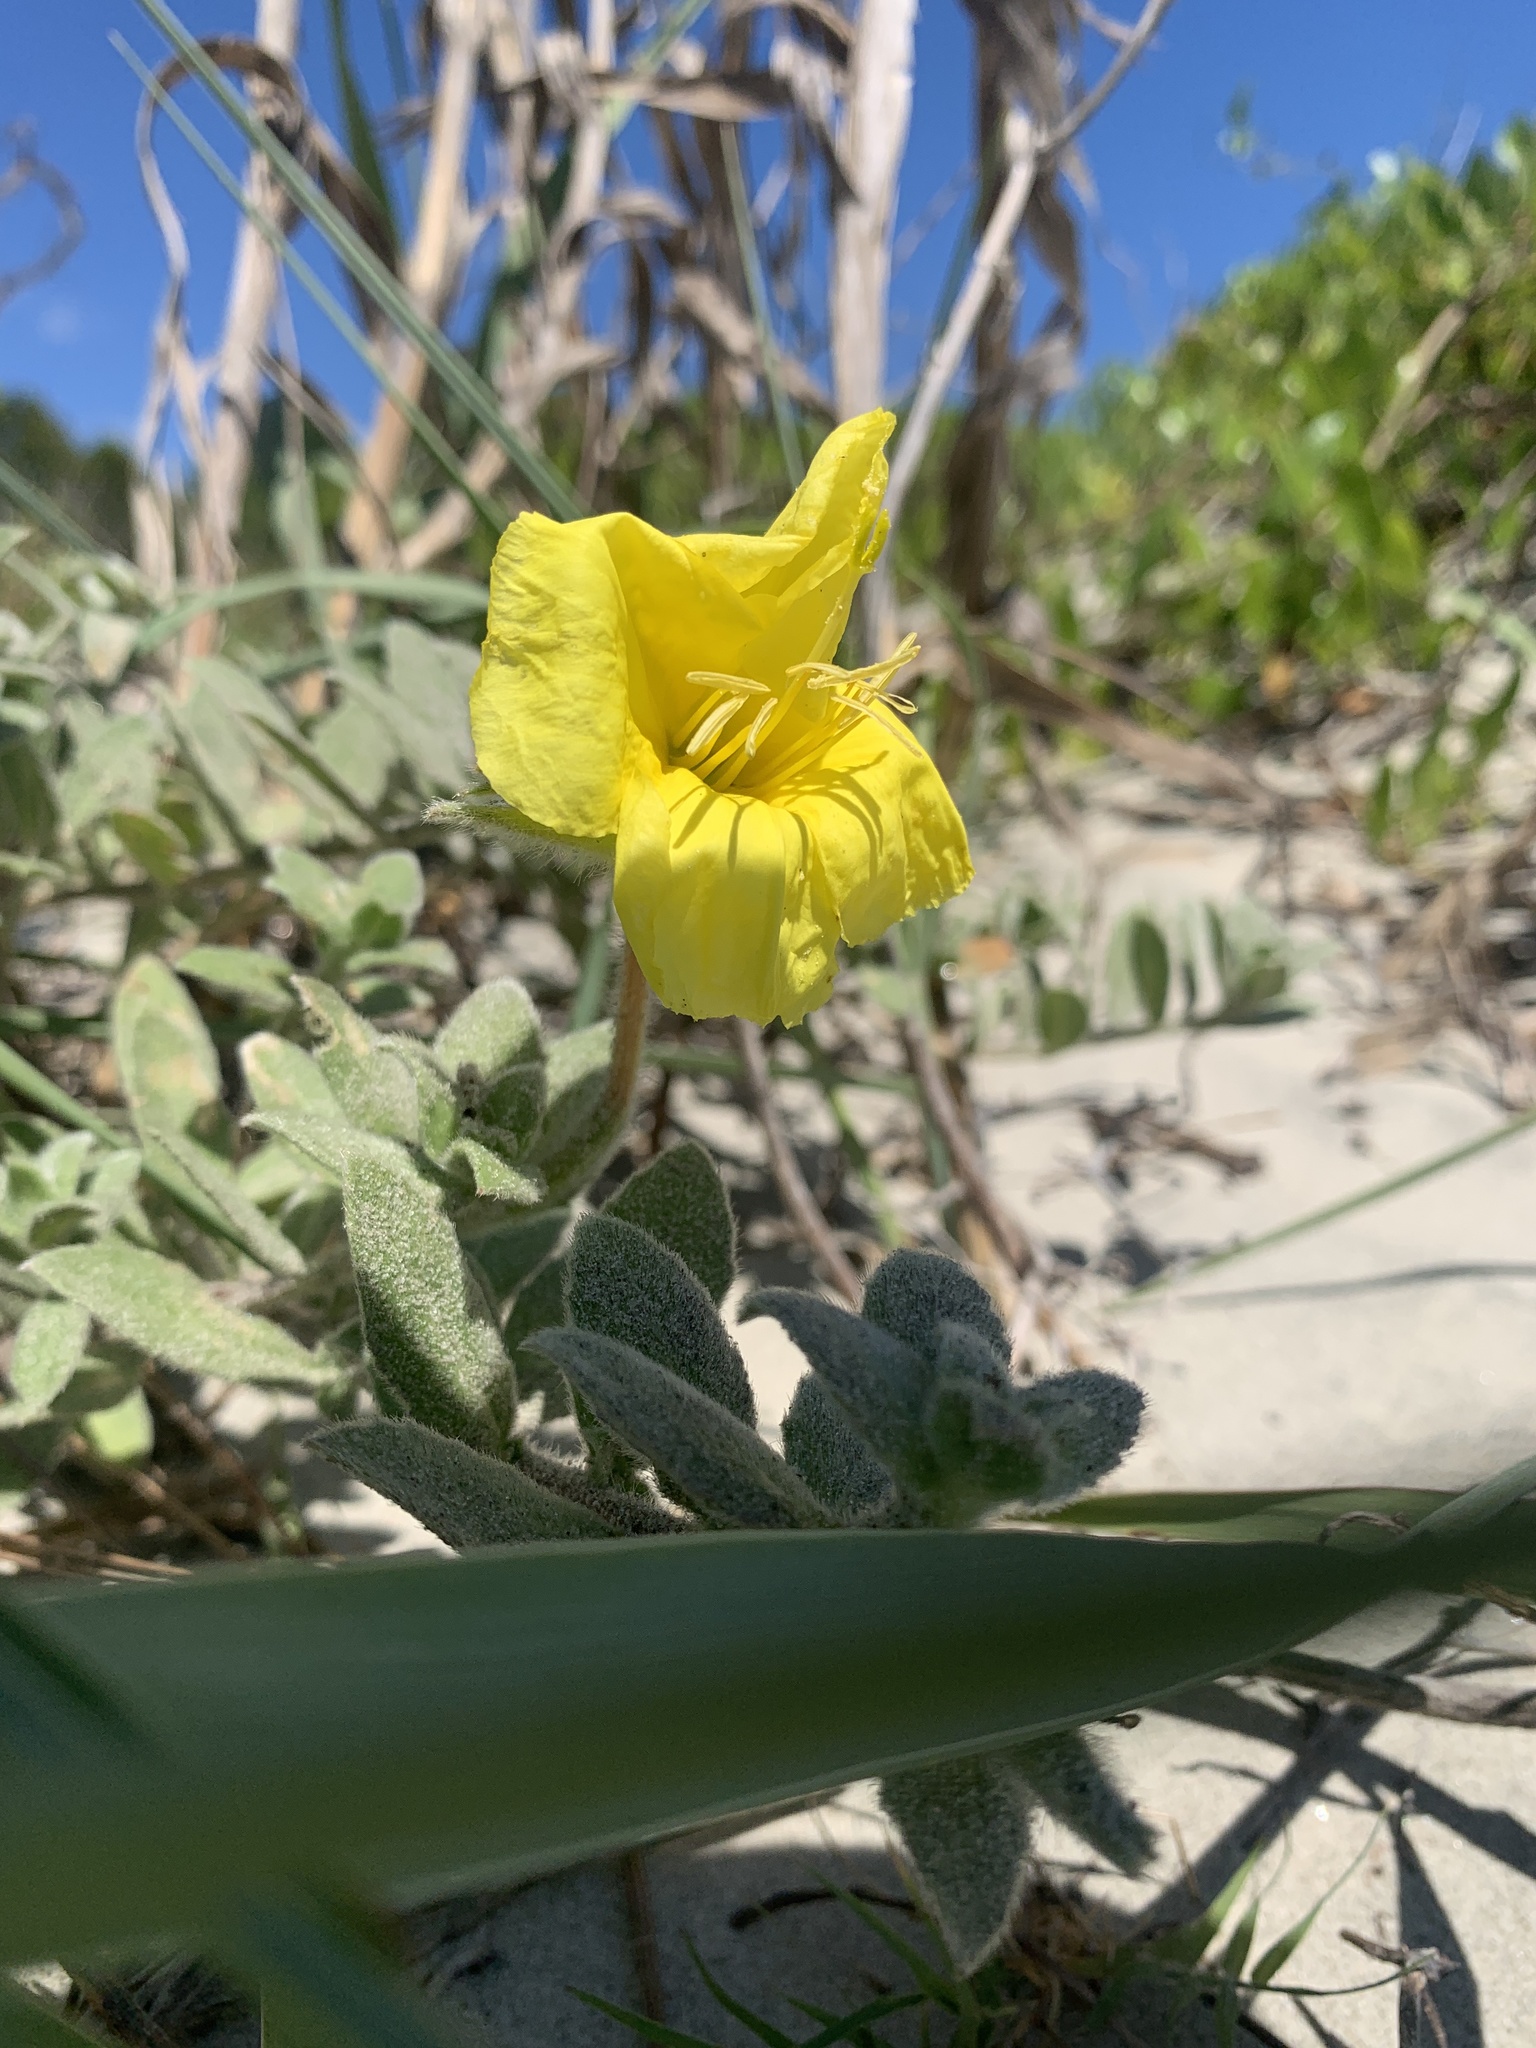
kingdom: Plantae
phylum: Tracheophyta
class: Magnoliopsida
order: Myrtales
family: Onagraceae
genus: Oenothera
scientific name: Oenothera drummondii
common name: Beach evening-primrose
